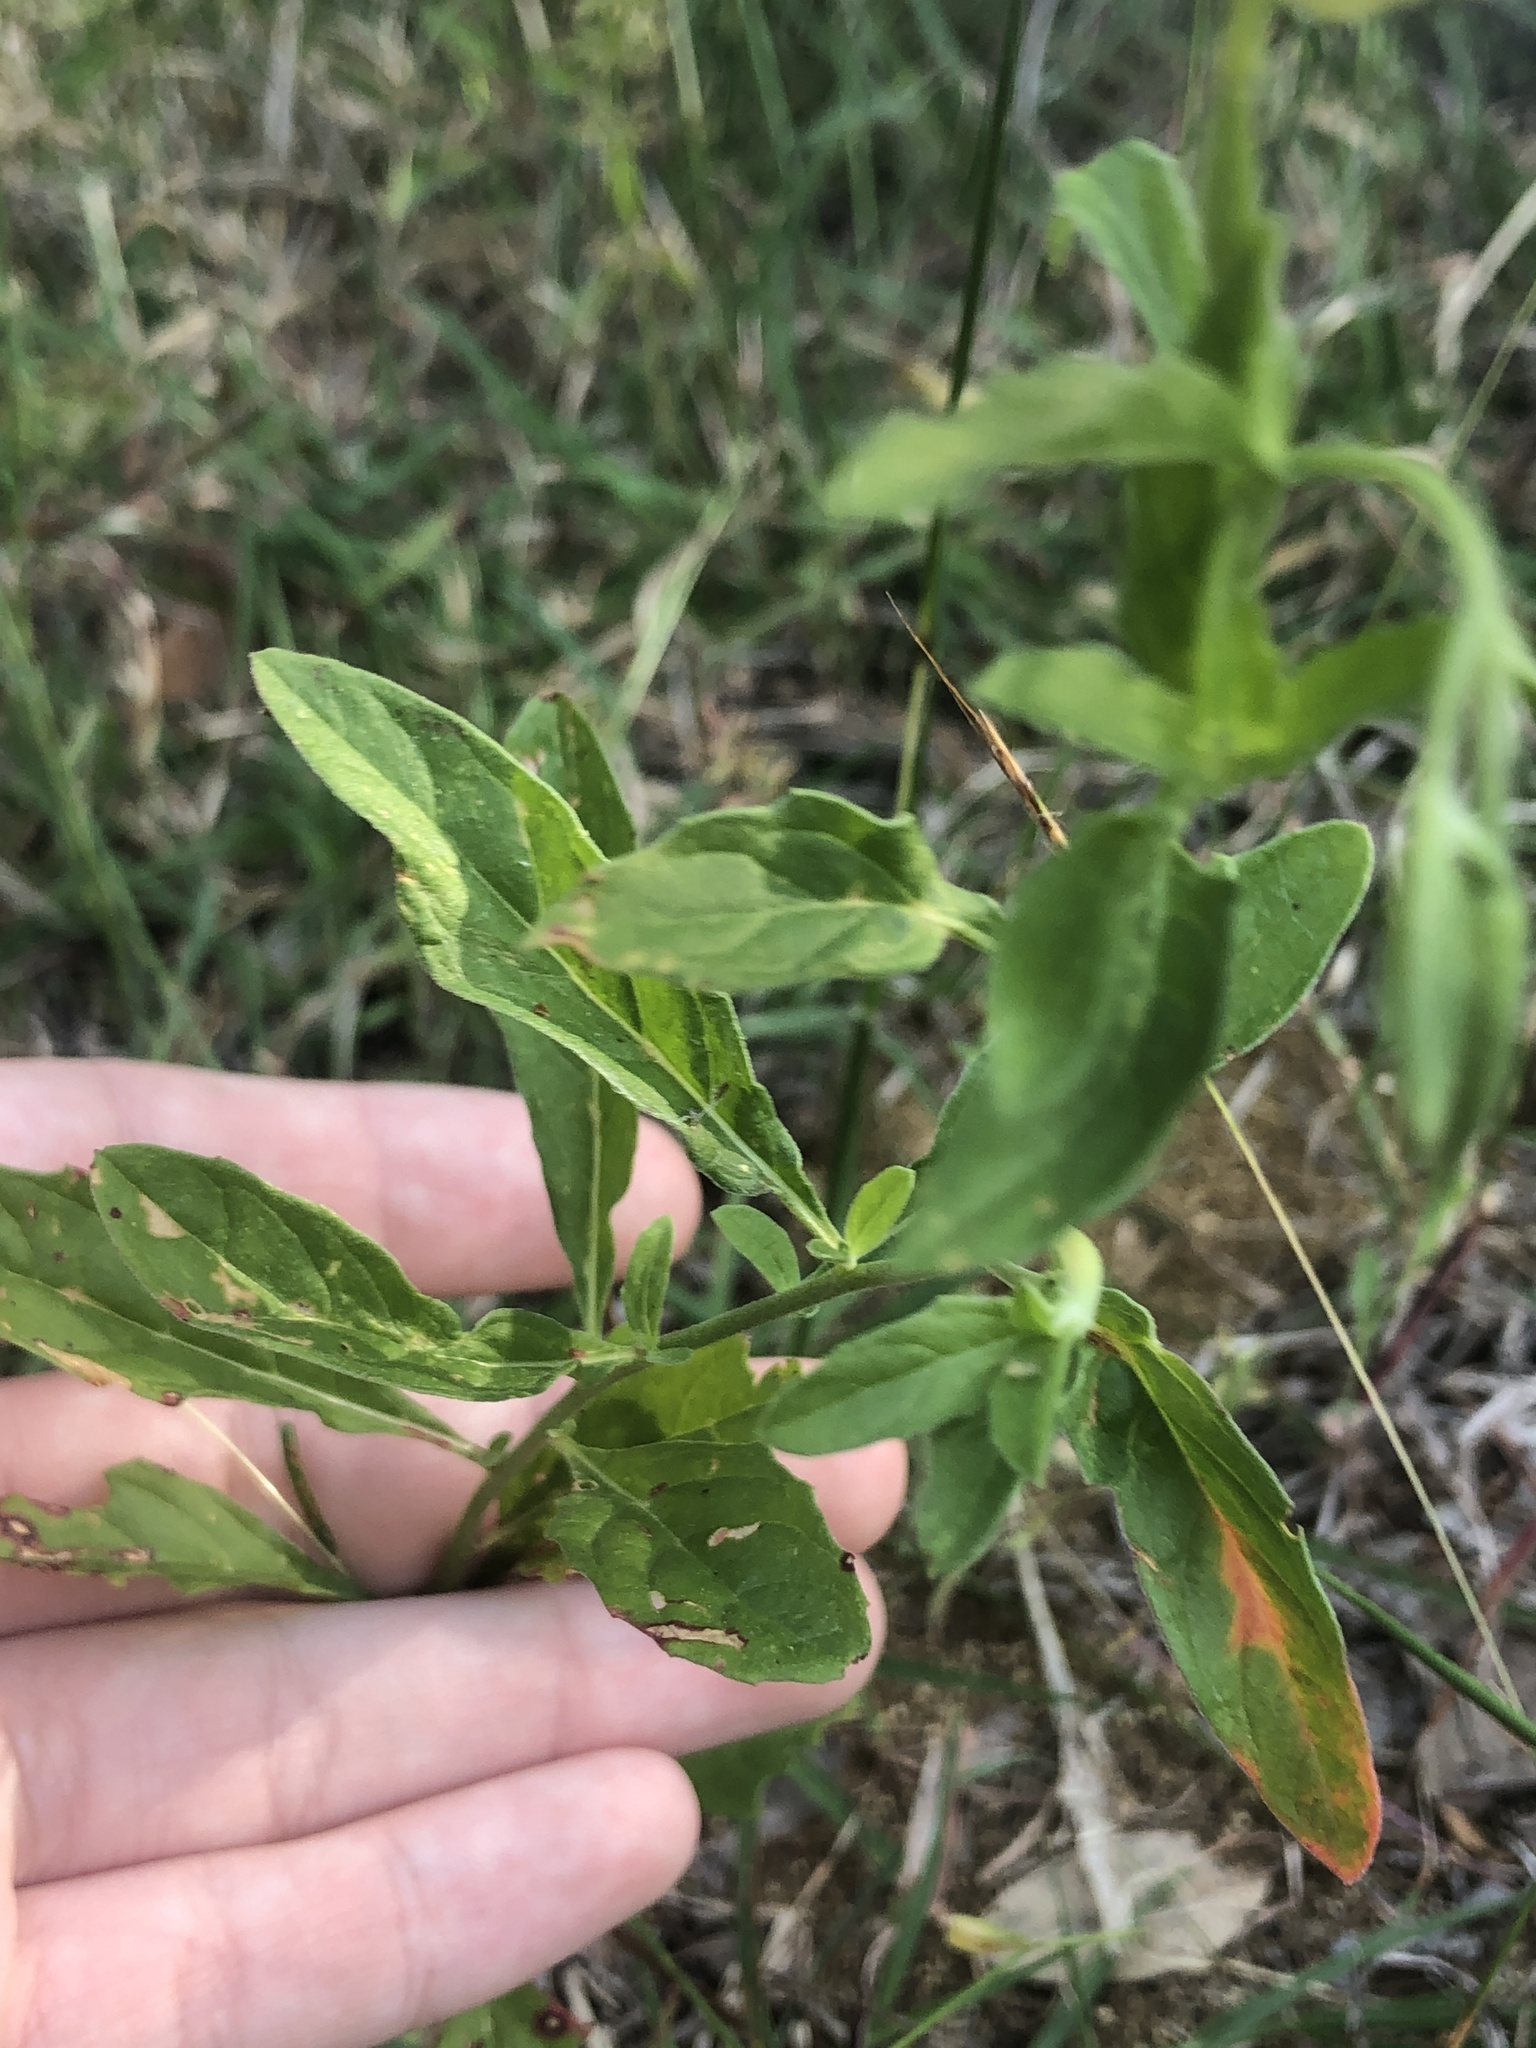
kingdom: Plantae
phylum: Tracheophyta
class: Magnoliopsida
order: Myrtales
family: Onagraceae
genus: Oenothera
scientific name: Oenothera speciosa
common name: White evening-primrose
